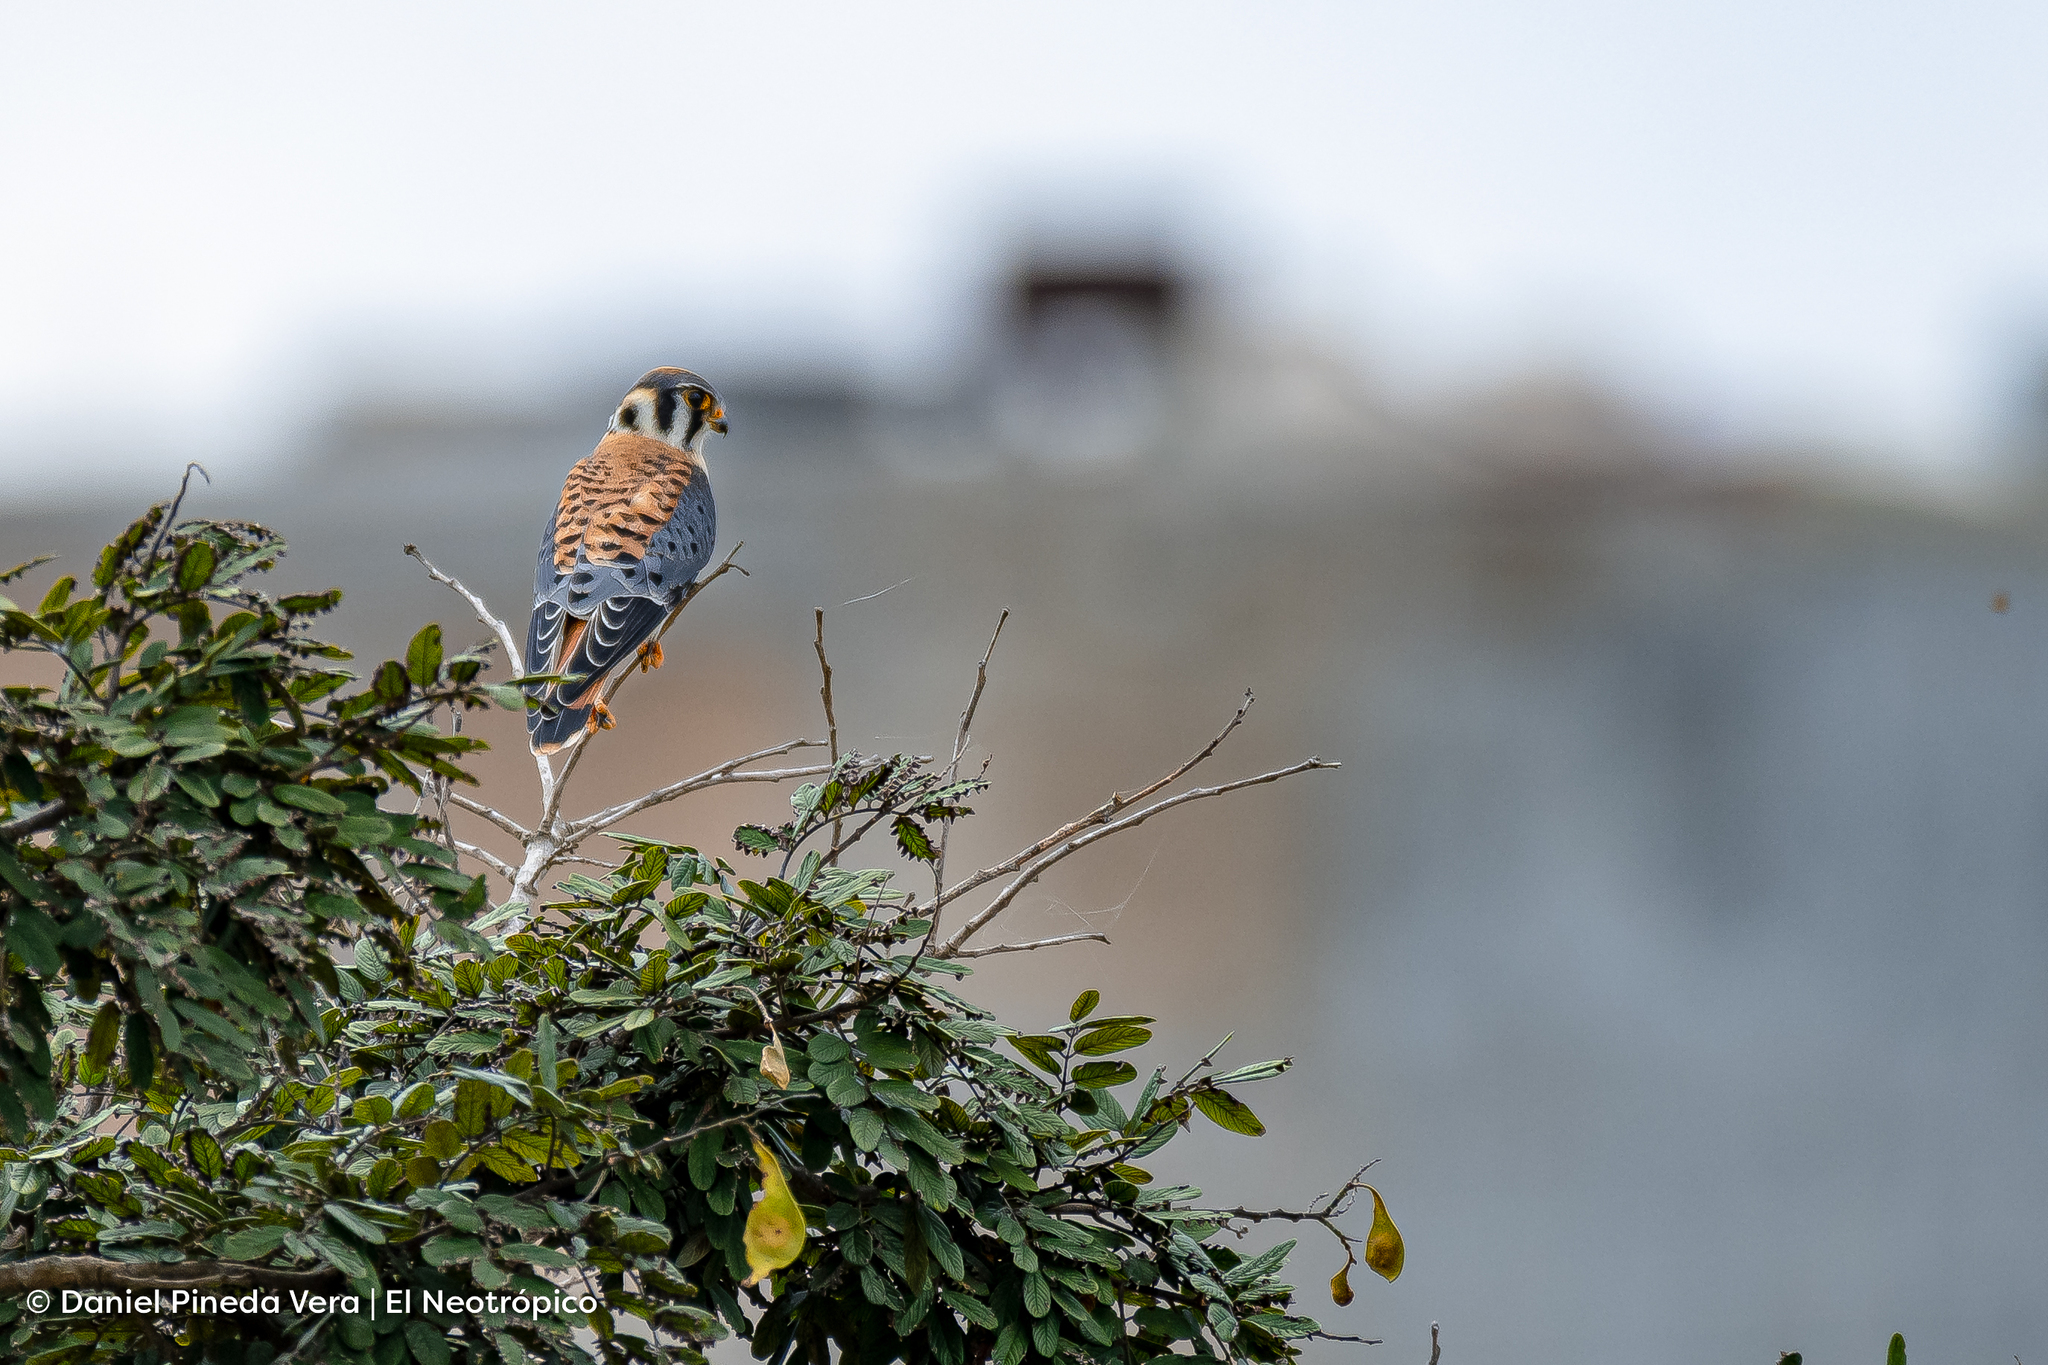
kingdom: Animalia
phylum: Chordata
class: Aves
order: Falconiformes
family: Falconidae
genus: Falco
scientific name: Falco sparverius
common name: American kestrel
